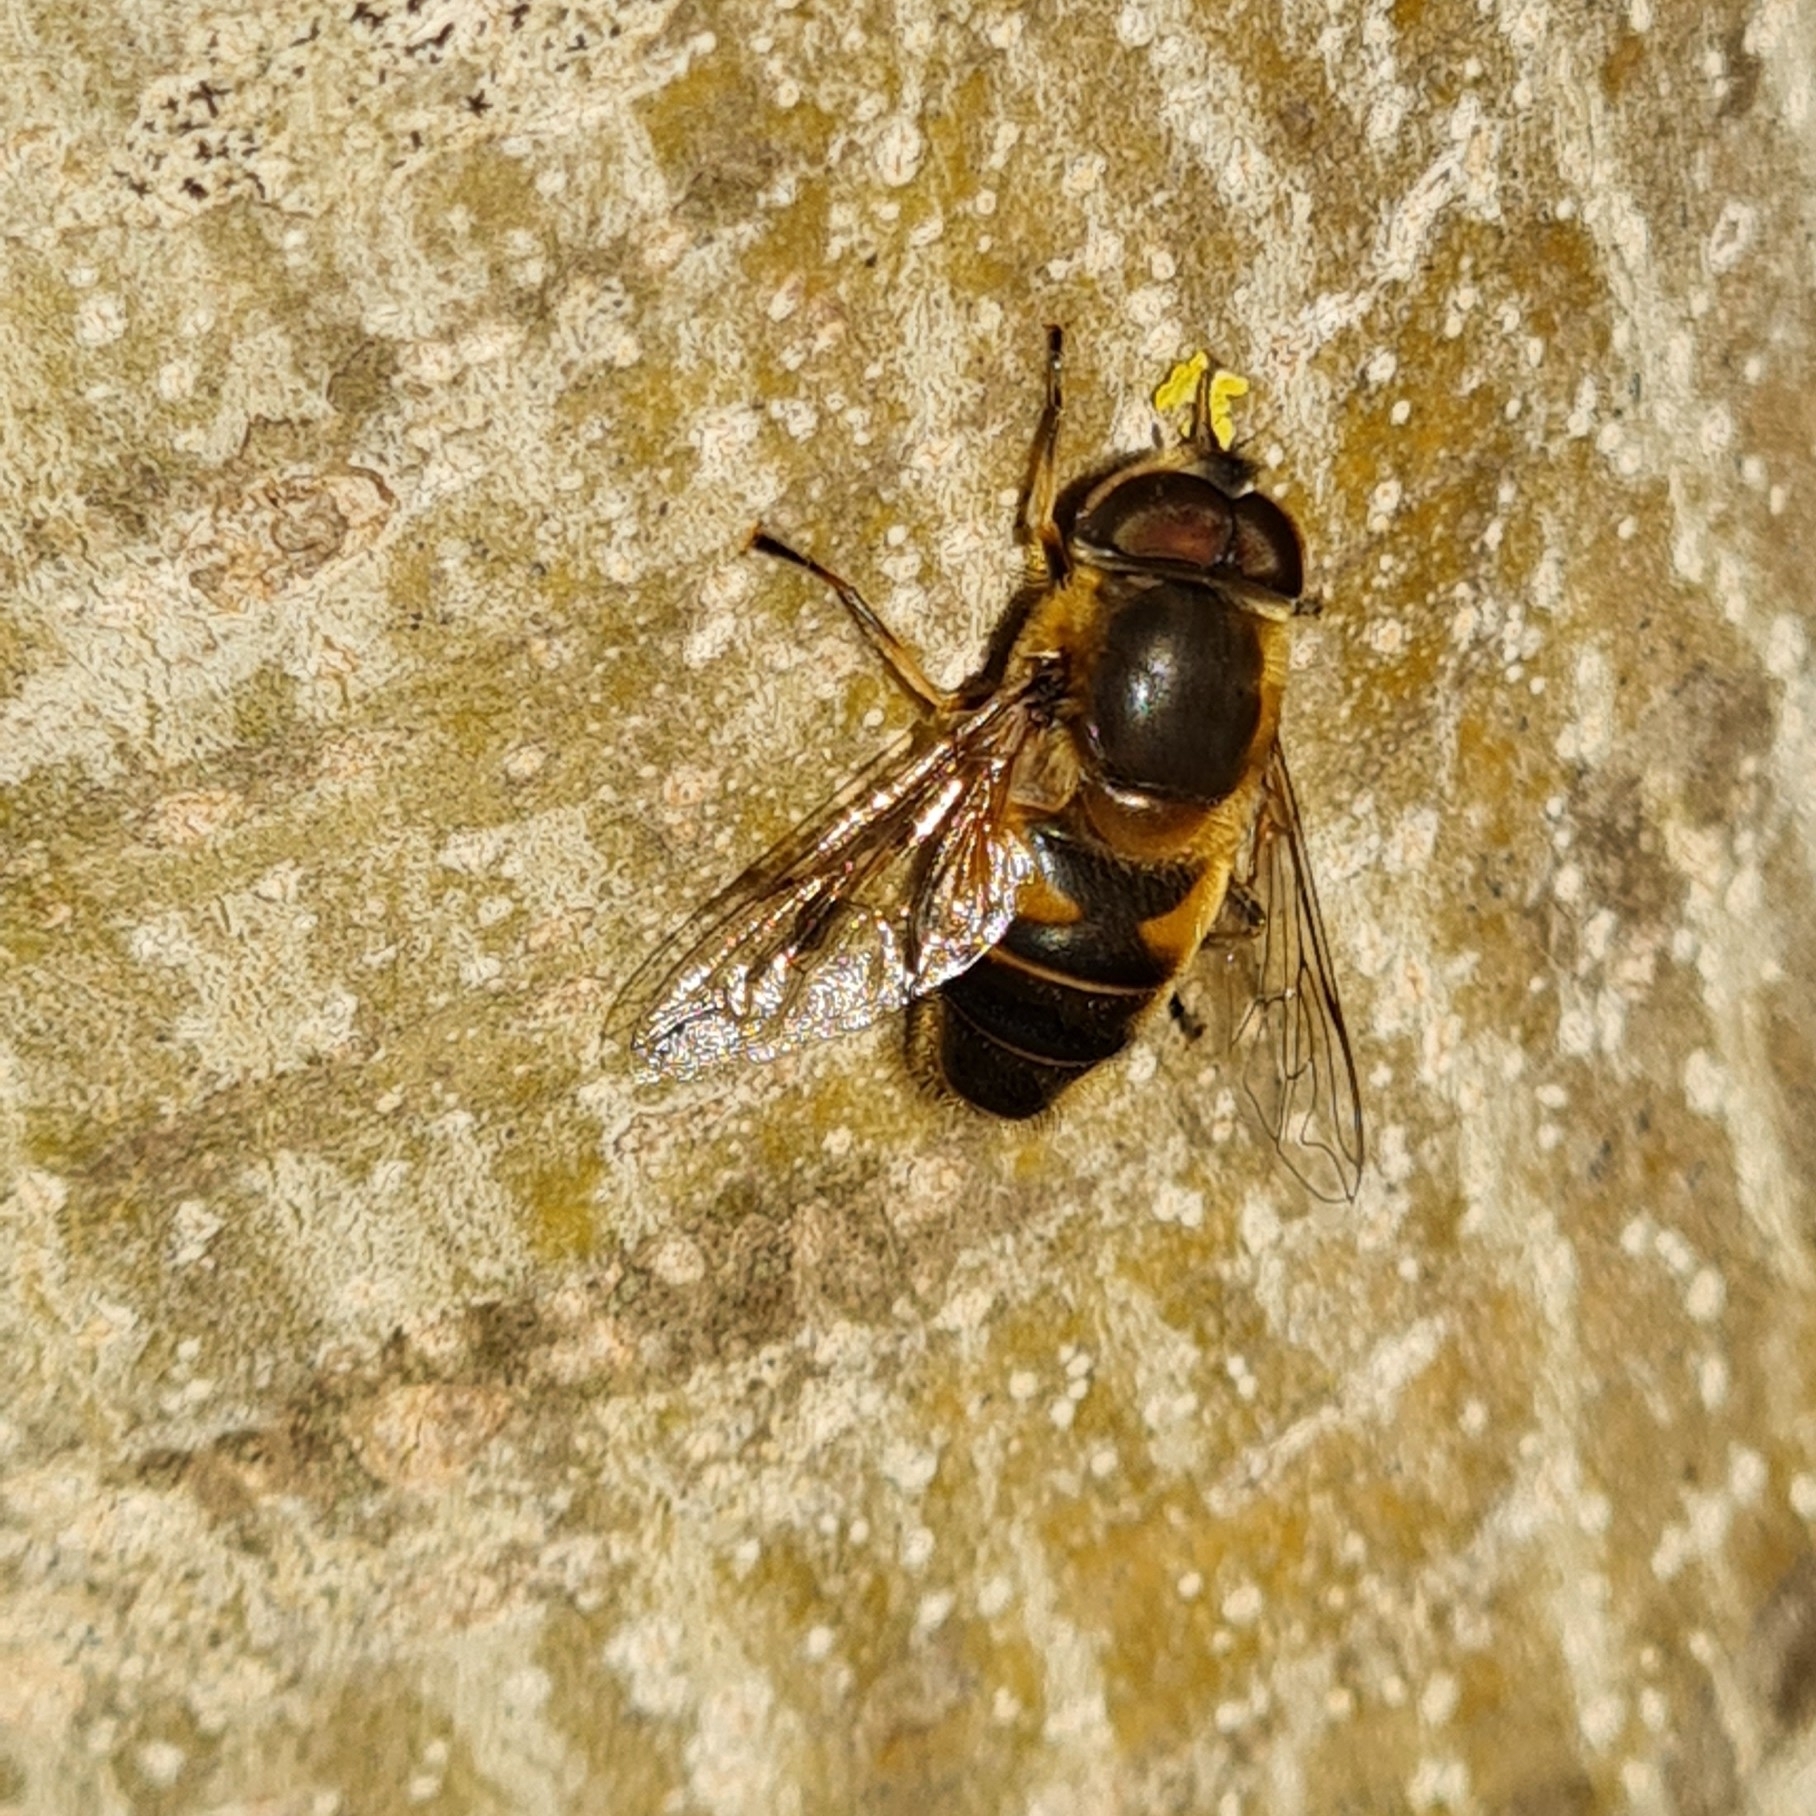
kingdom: Animalia
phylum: Arthropoda
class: Insecta
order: Diptera
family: Syrphidae
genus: Eristalis
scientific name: Eristalis pertinax
